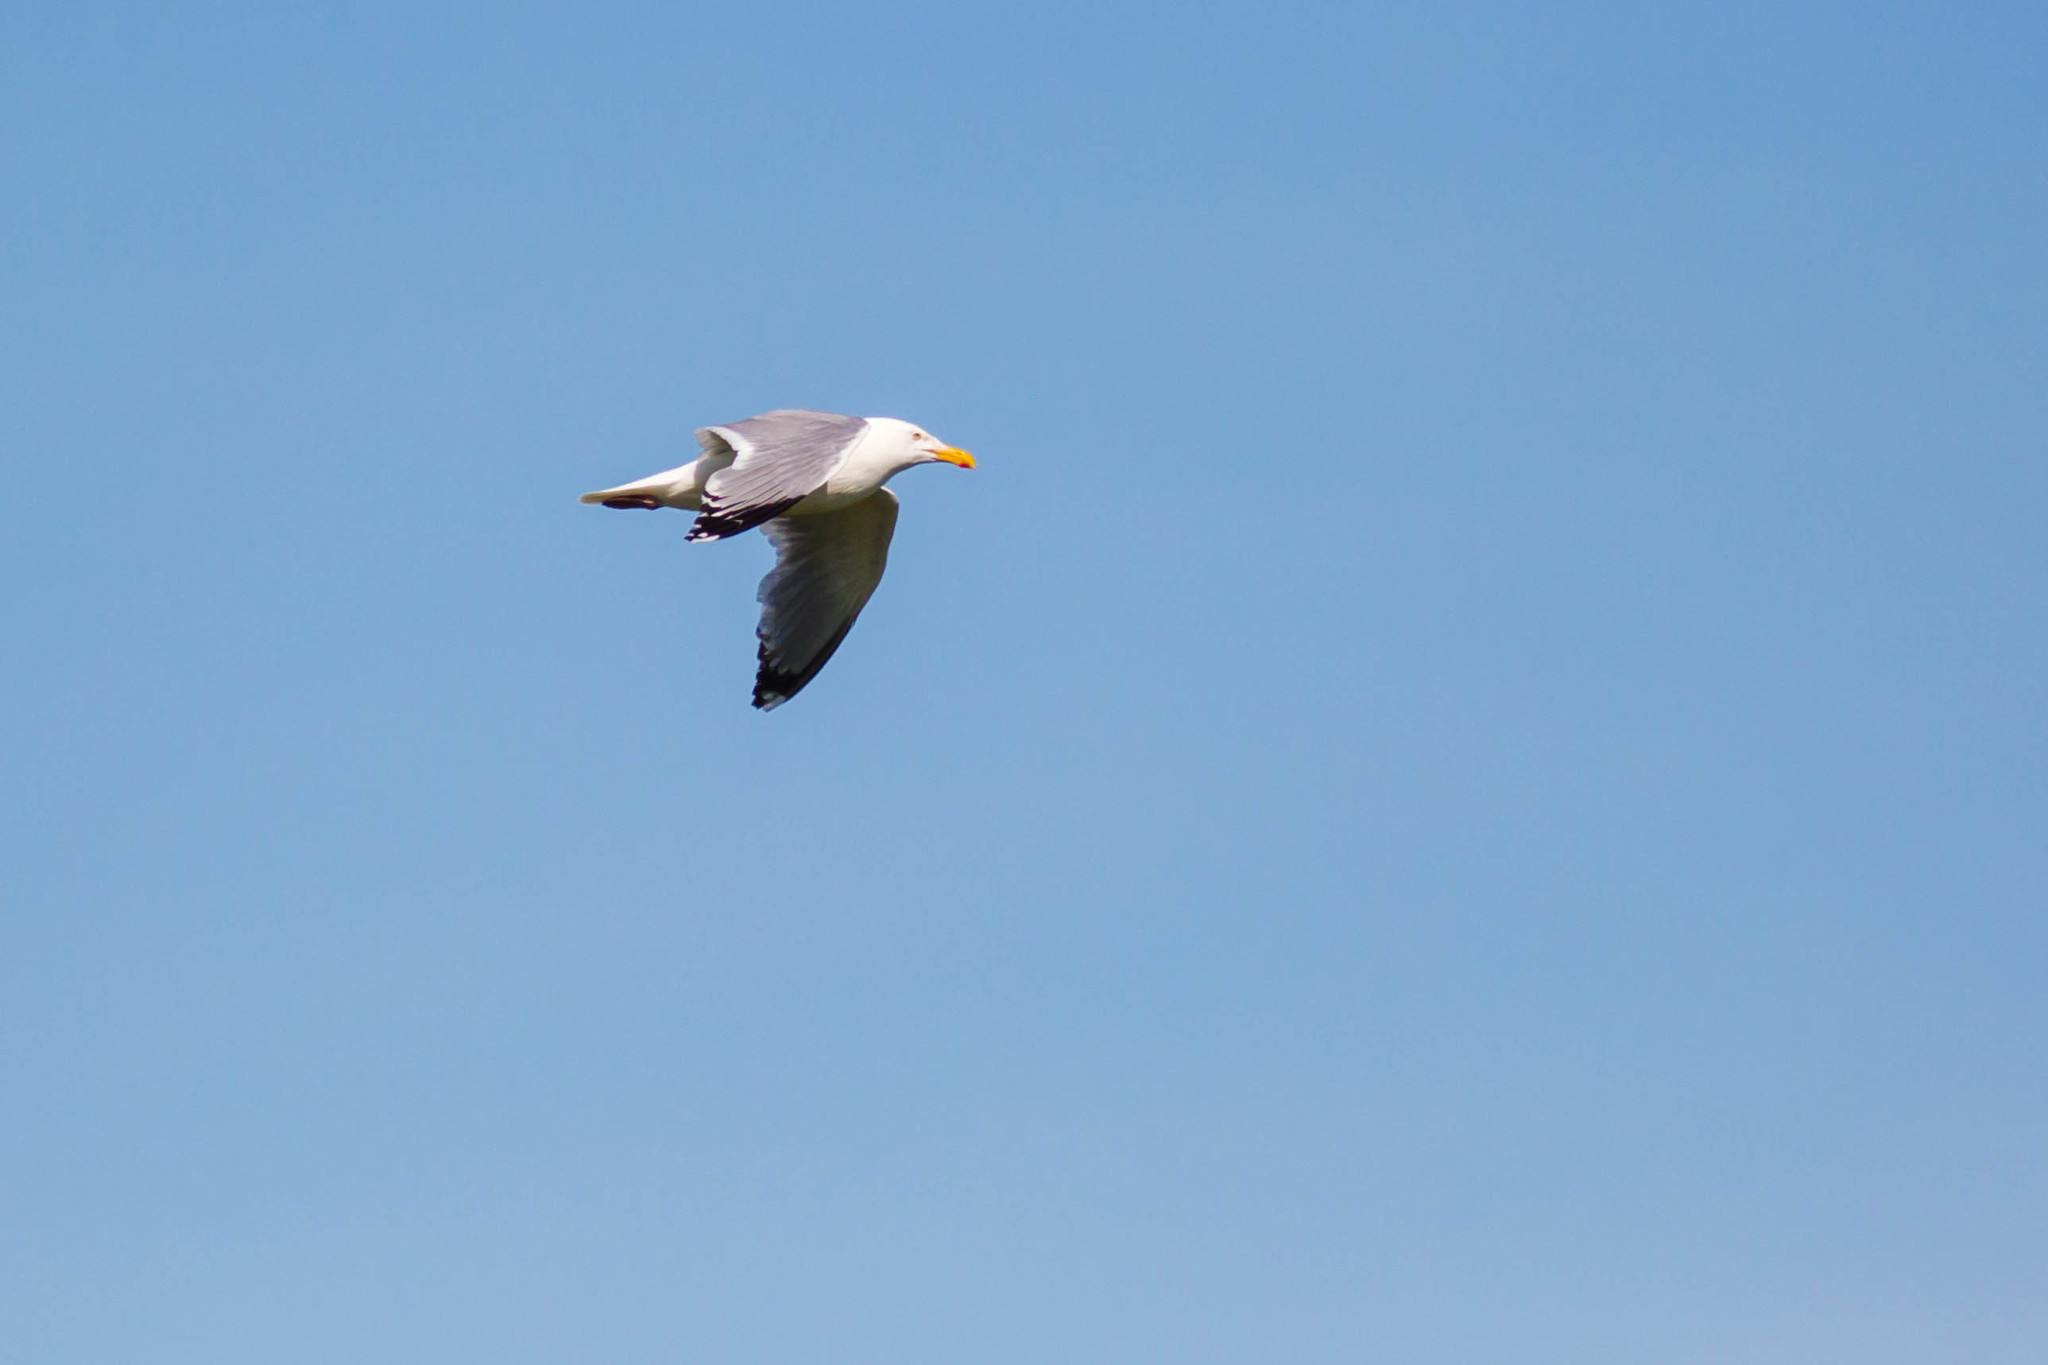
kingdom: Animalia
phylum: Chordata
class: Aves
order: Charadriiformes
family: Laridae
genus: Larus
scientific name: Larus argentatus
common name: Herring gull
